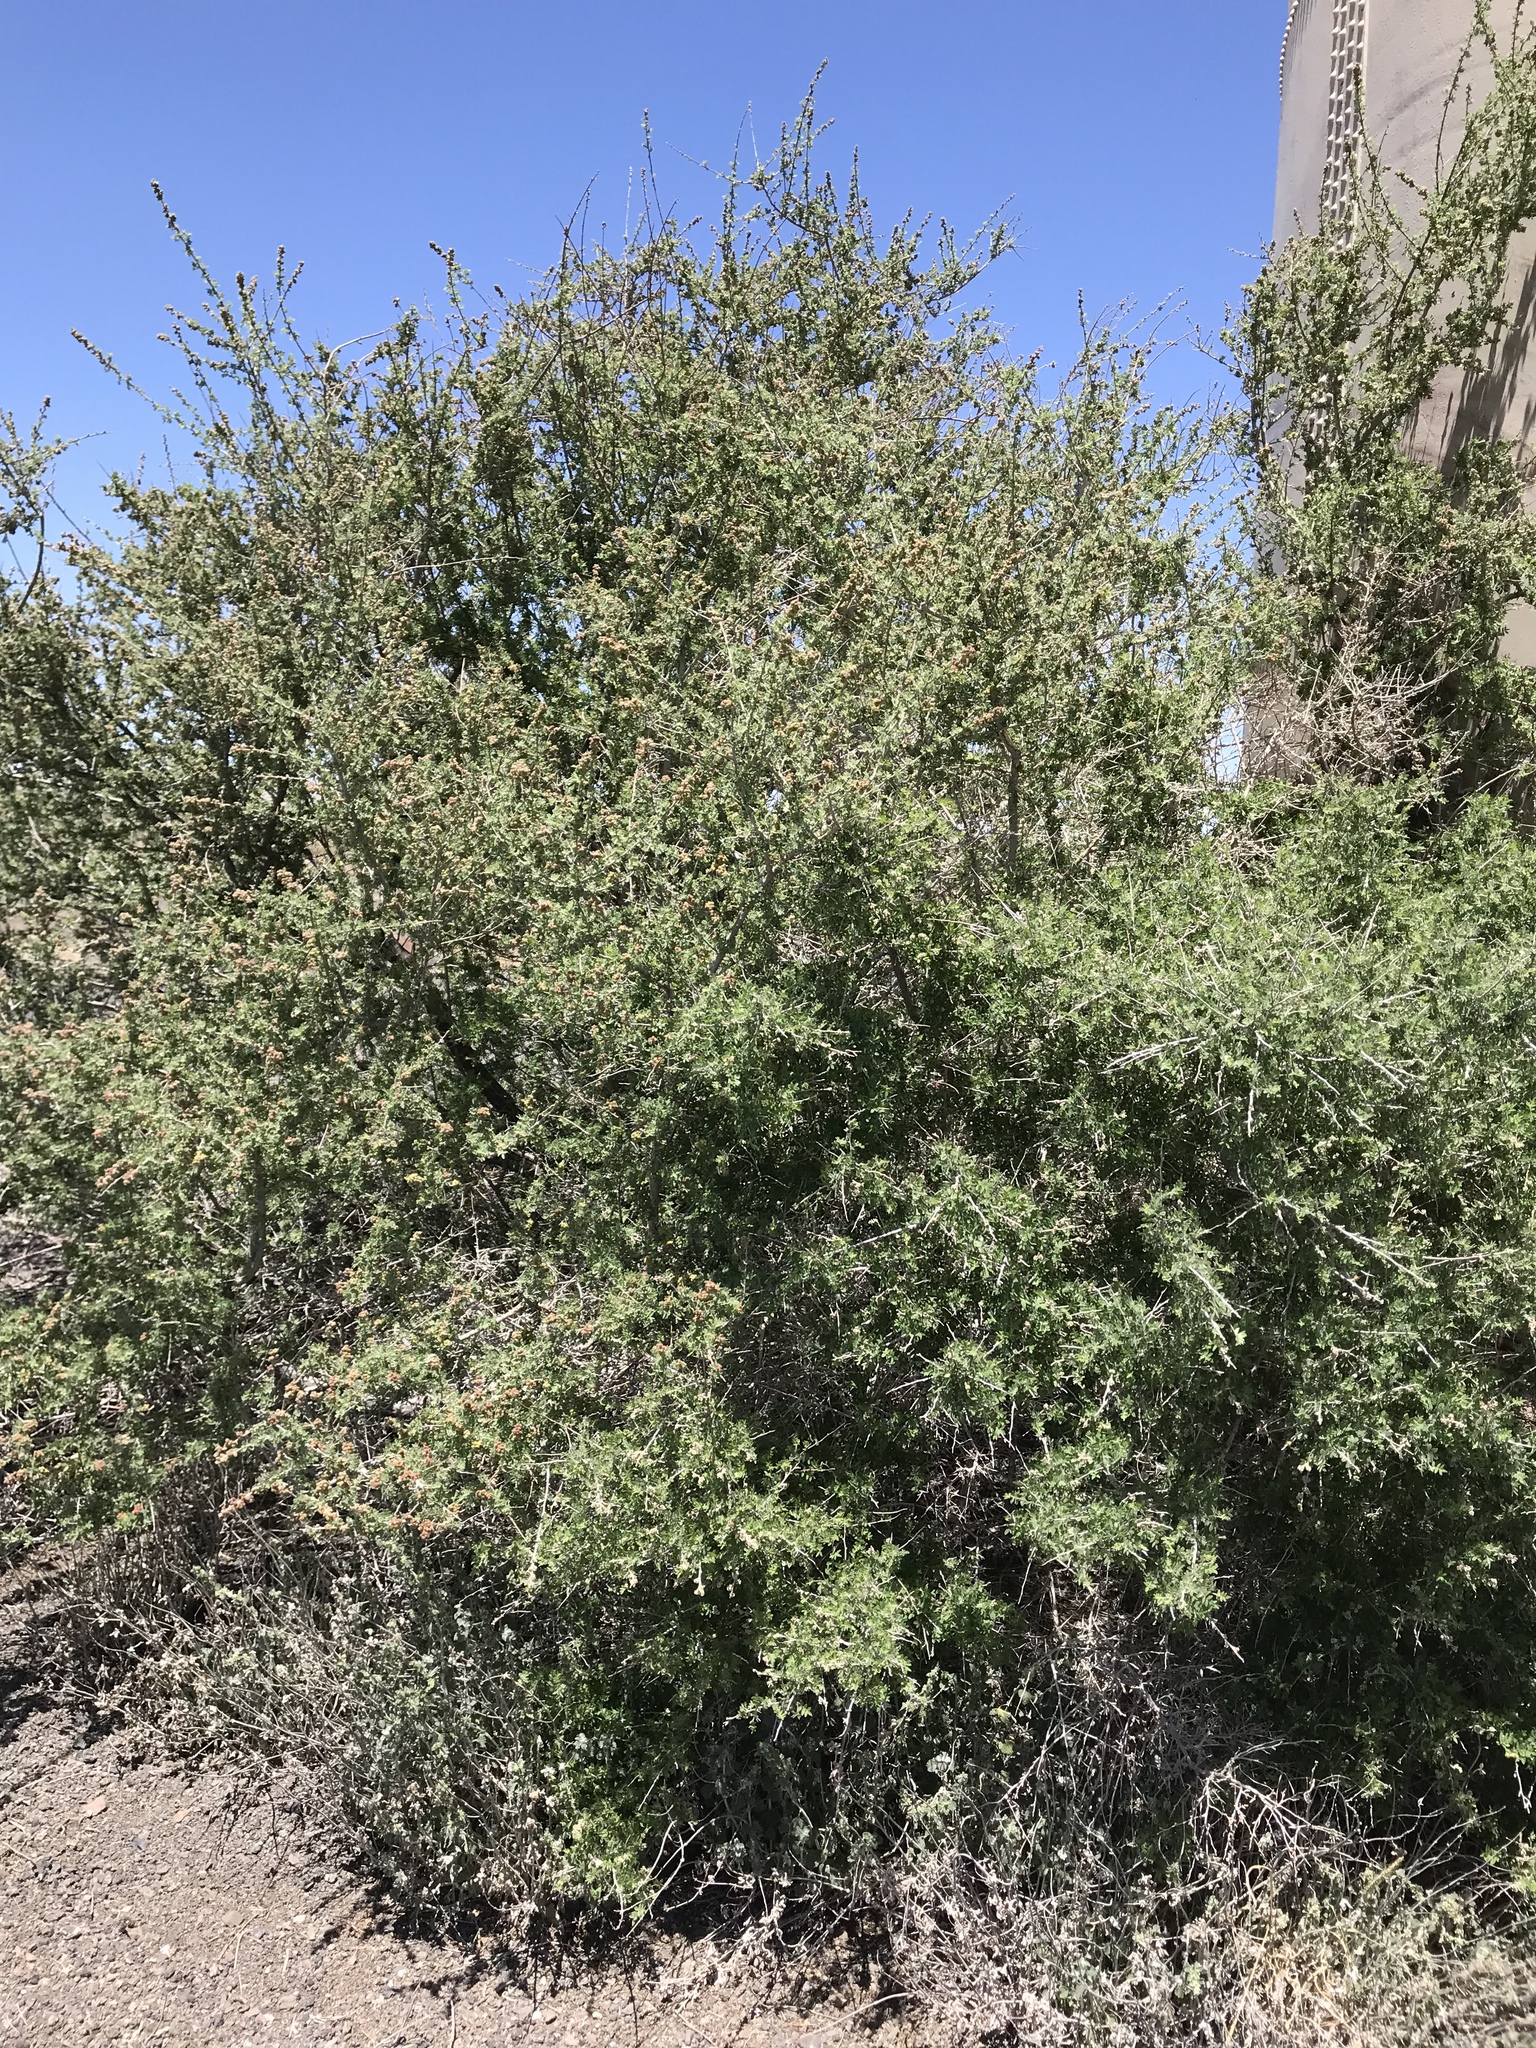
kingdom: Plantae
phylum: Tracheophyta
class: Magnoliopsida
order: Sapindales
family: Anacardiaceae
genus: Rhus
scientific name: Rhus microphylla
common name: Desert sumac
